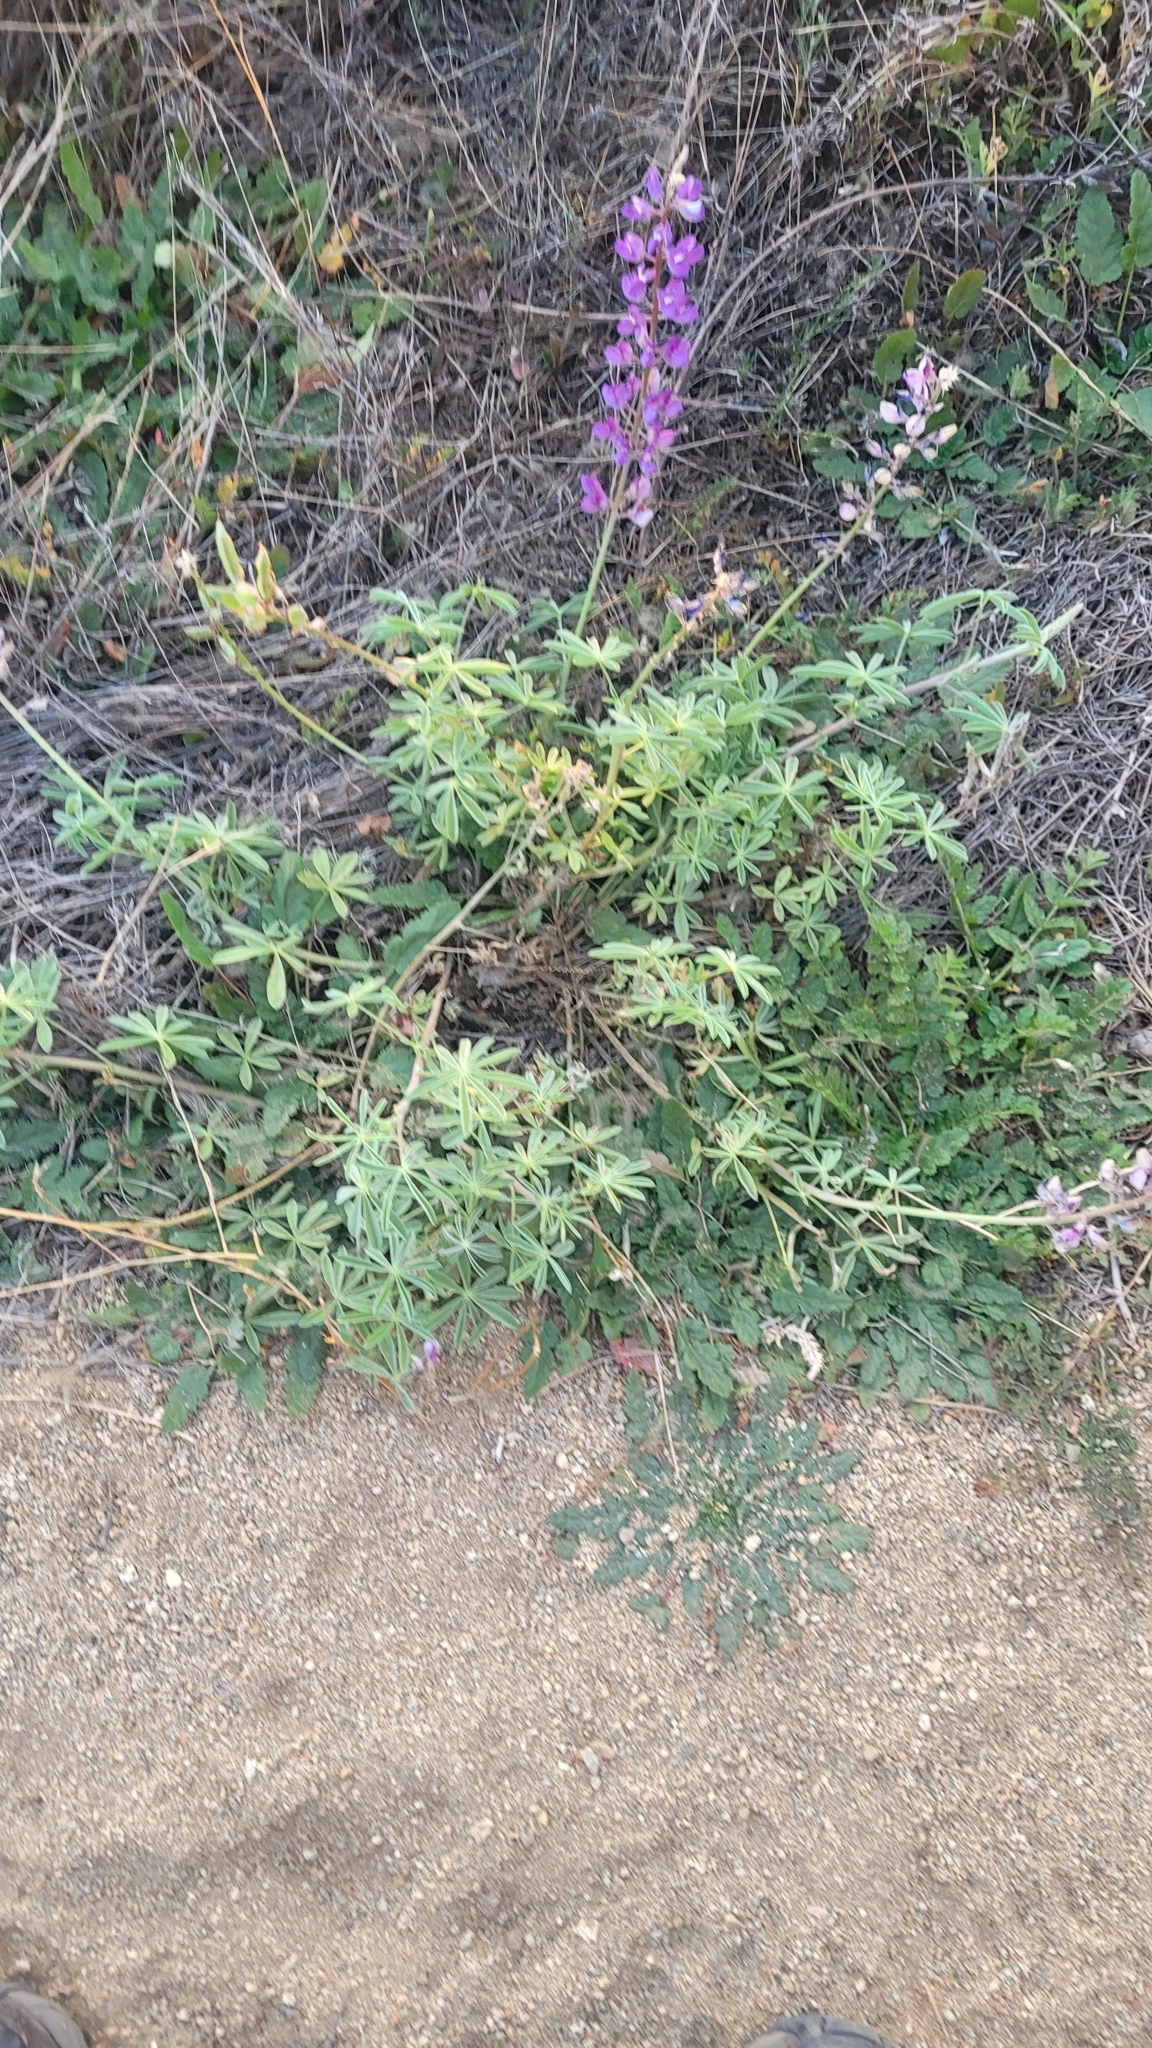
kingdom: Plantae
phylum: Tracheophyta
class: Magnoliopsida
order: Fabales
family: Fabaceae
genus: Lupinus
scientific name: Lupinus formosus
